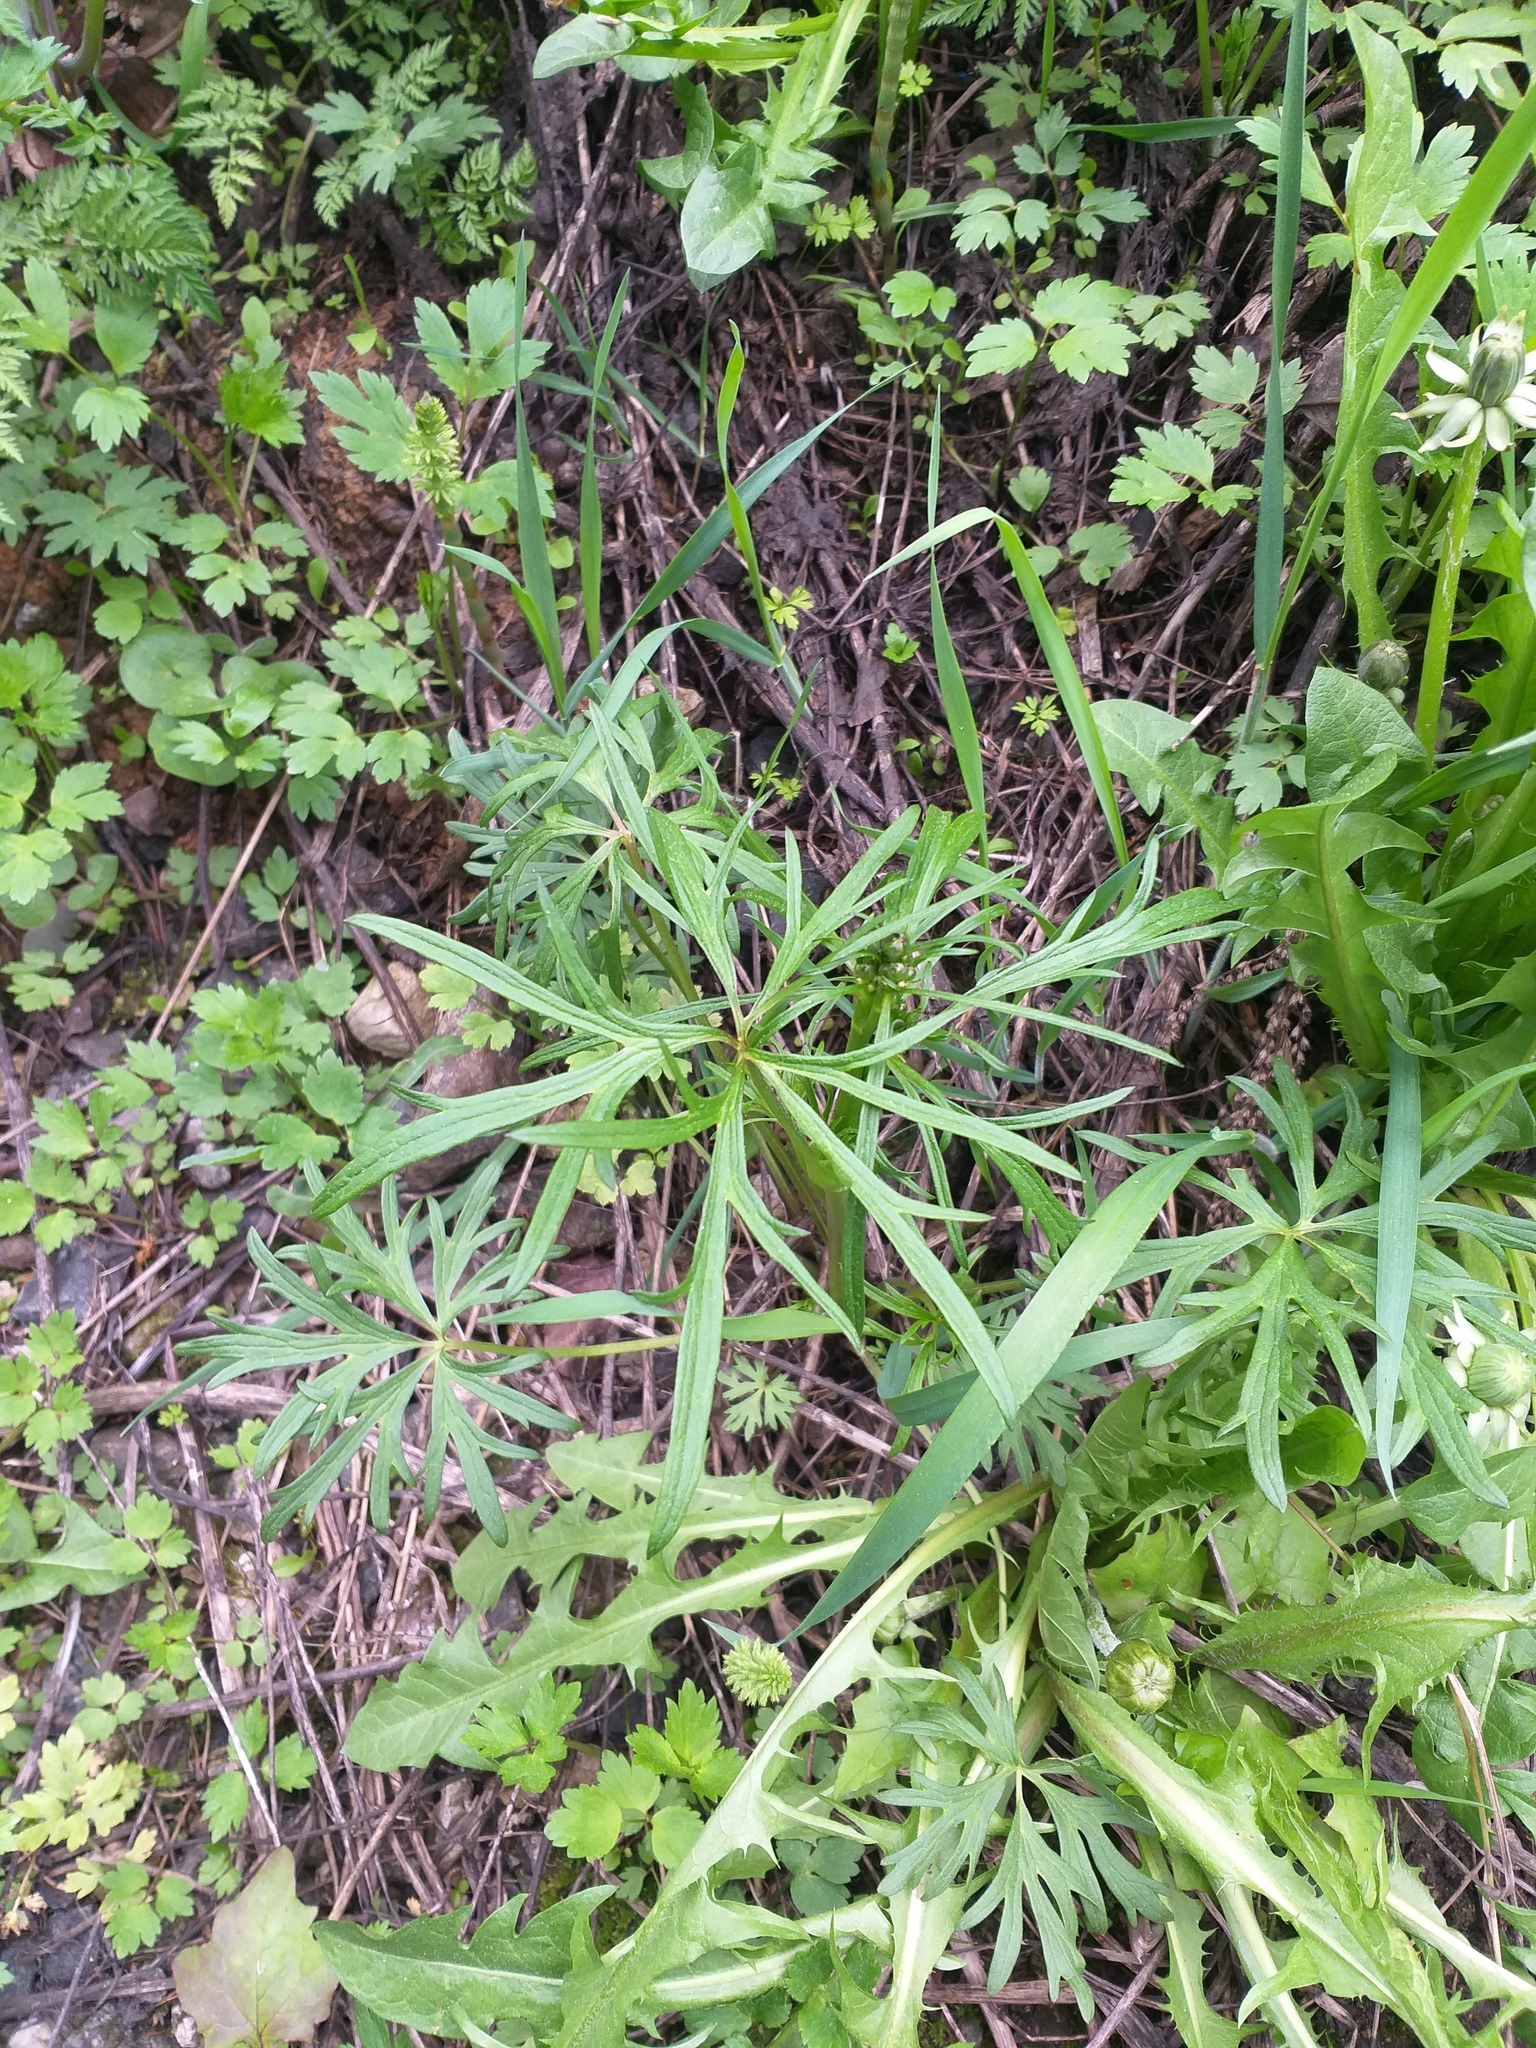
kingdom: Plantae
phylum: Tracheophyta
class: Magnoliopsida
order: Ranunculales
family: Ranunculaceae
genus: Ranunculus
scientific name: Ranunculus acris
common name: Meadow buttercup
